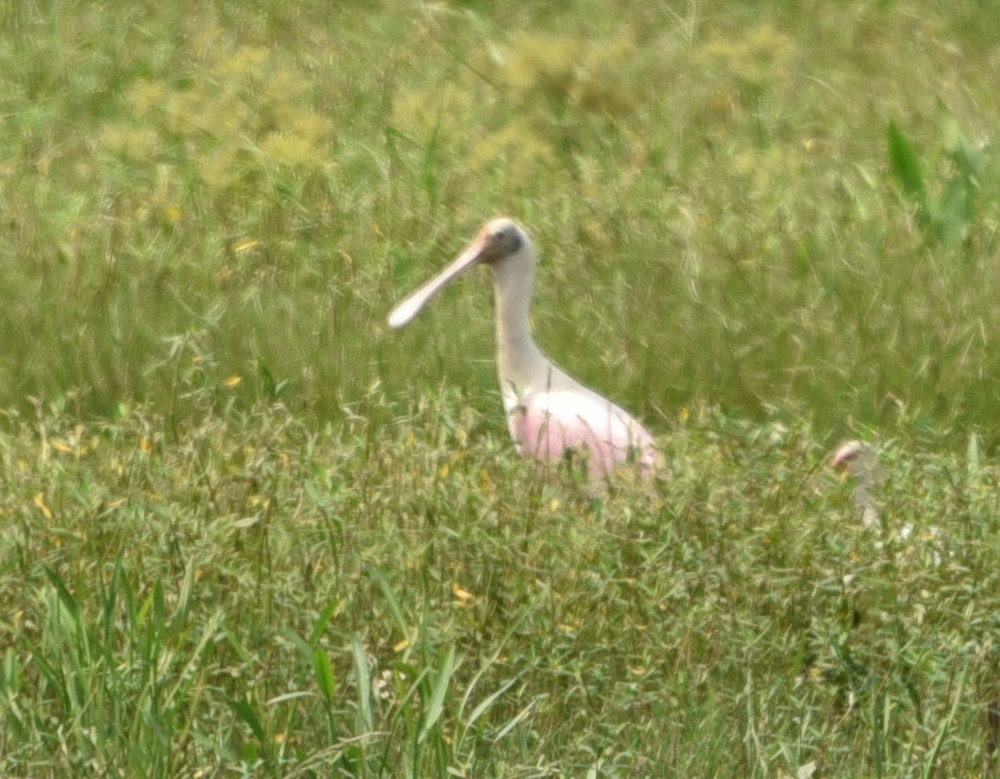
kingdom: Animalia
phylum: Chordata
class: Aves
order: Pelecaniformes
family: Threskiornithidae
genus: Platalea
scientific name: Platalea ajaja
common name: Roseate spoonbill
